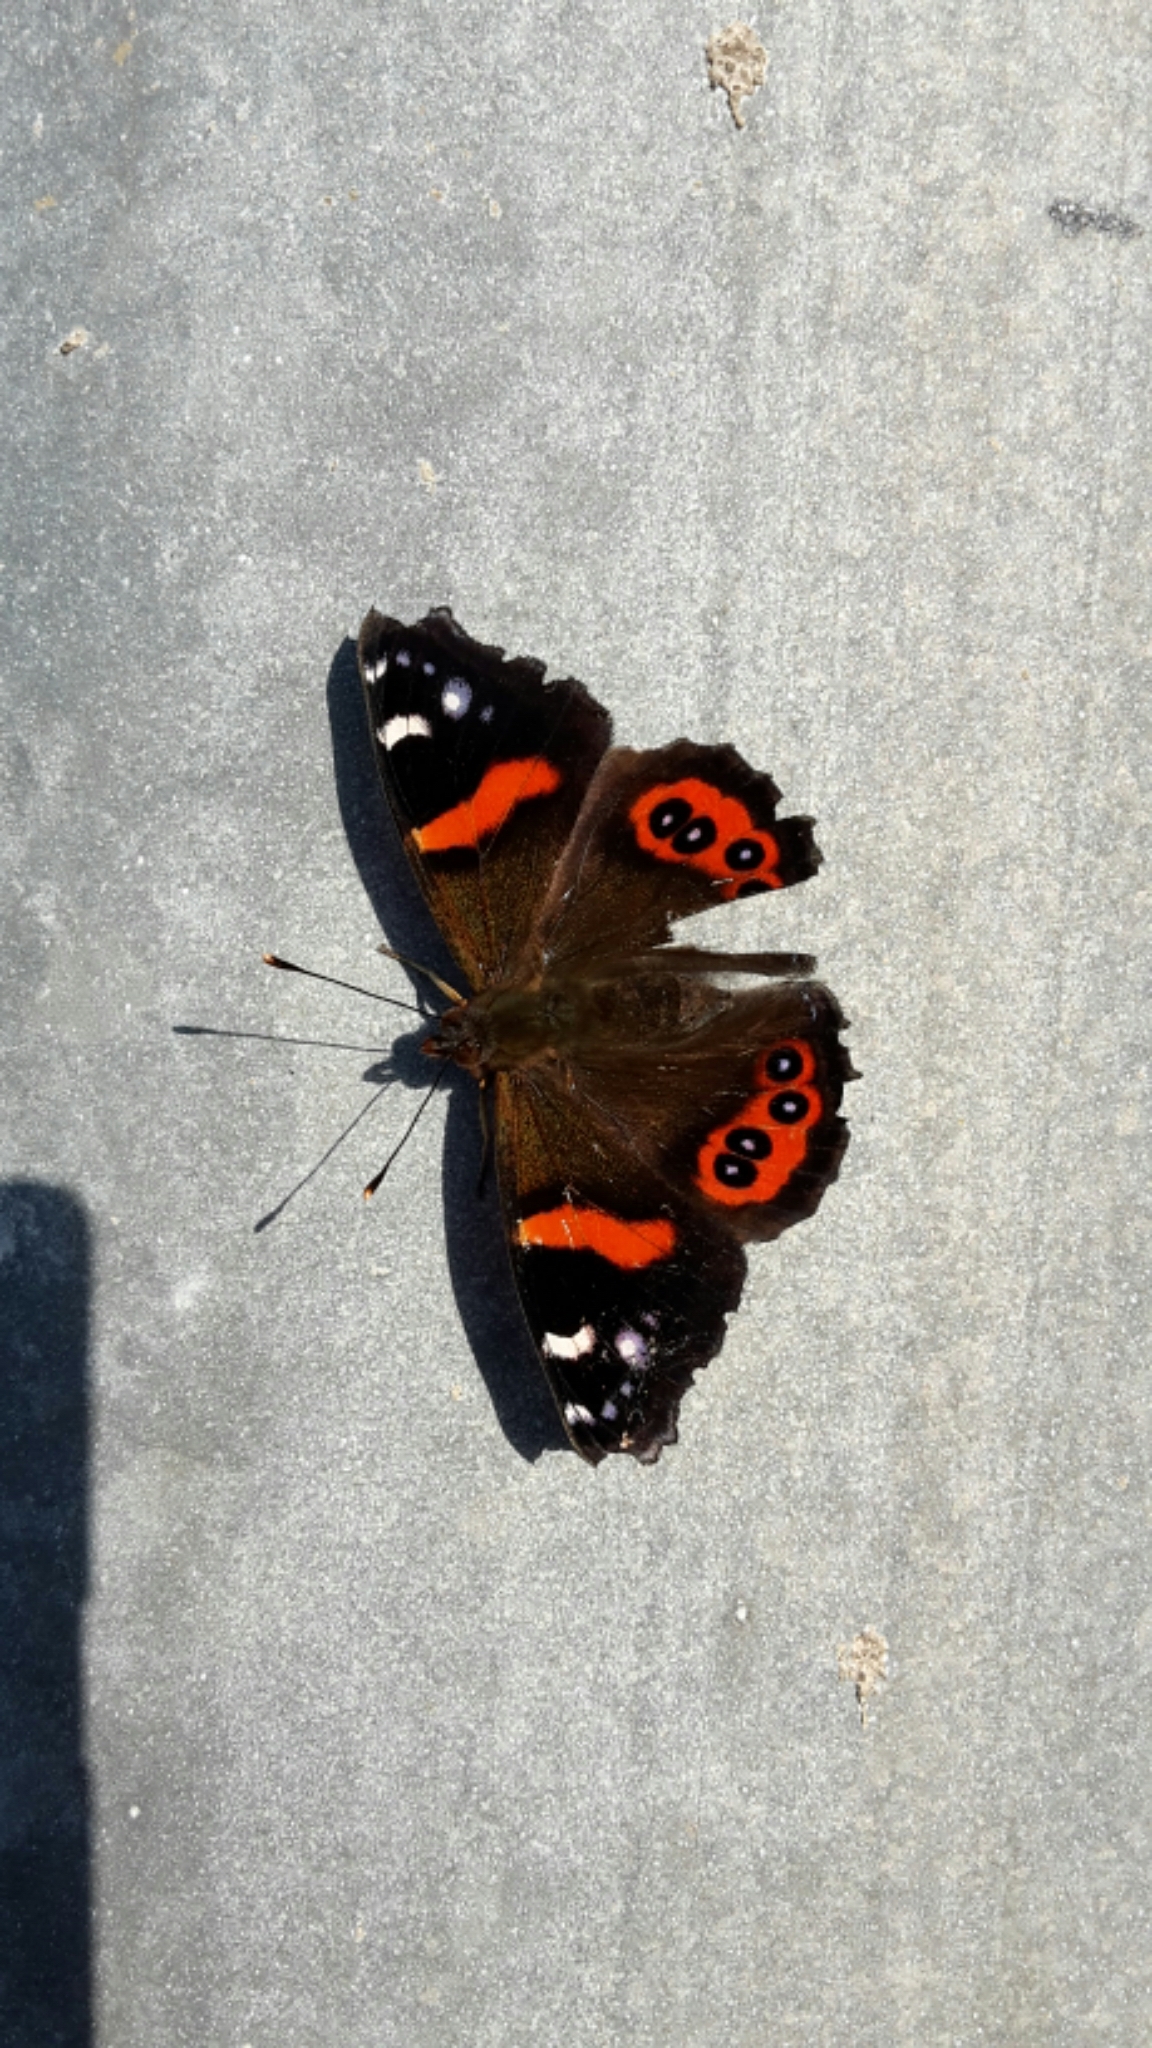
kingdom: Animalia
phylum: Arthropoda
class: Insecta
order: Lepidoptera
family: Nymphalidae
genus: Vanessa
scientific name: Vanessa gonerilla
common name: New zealand red admiral
